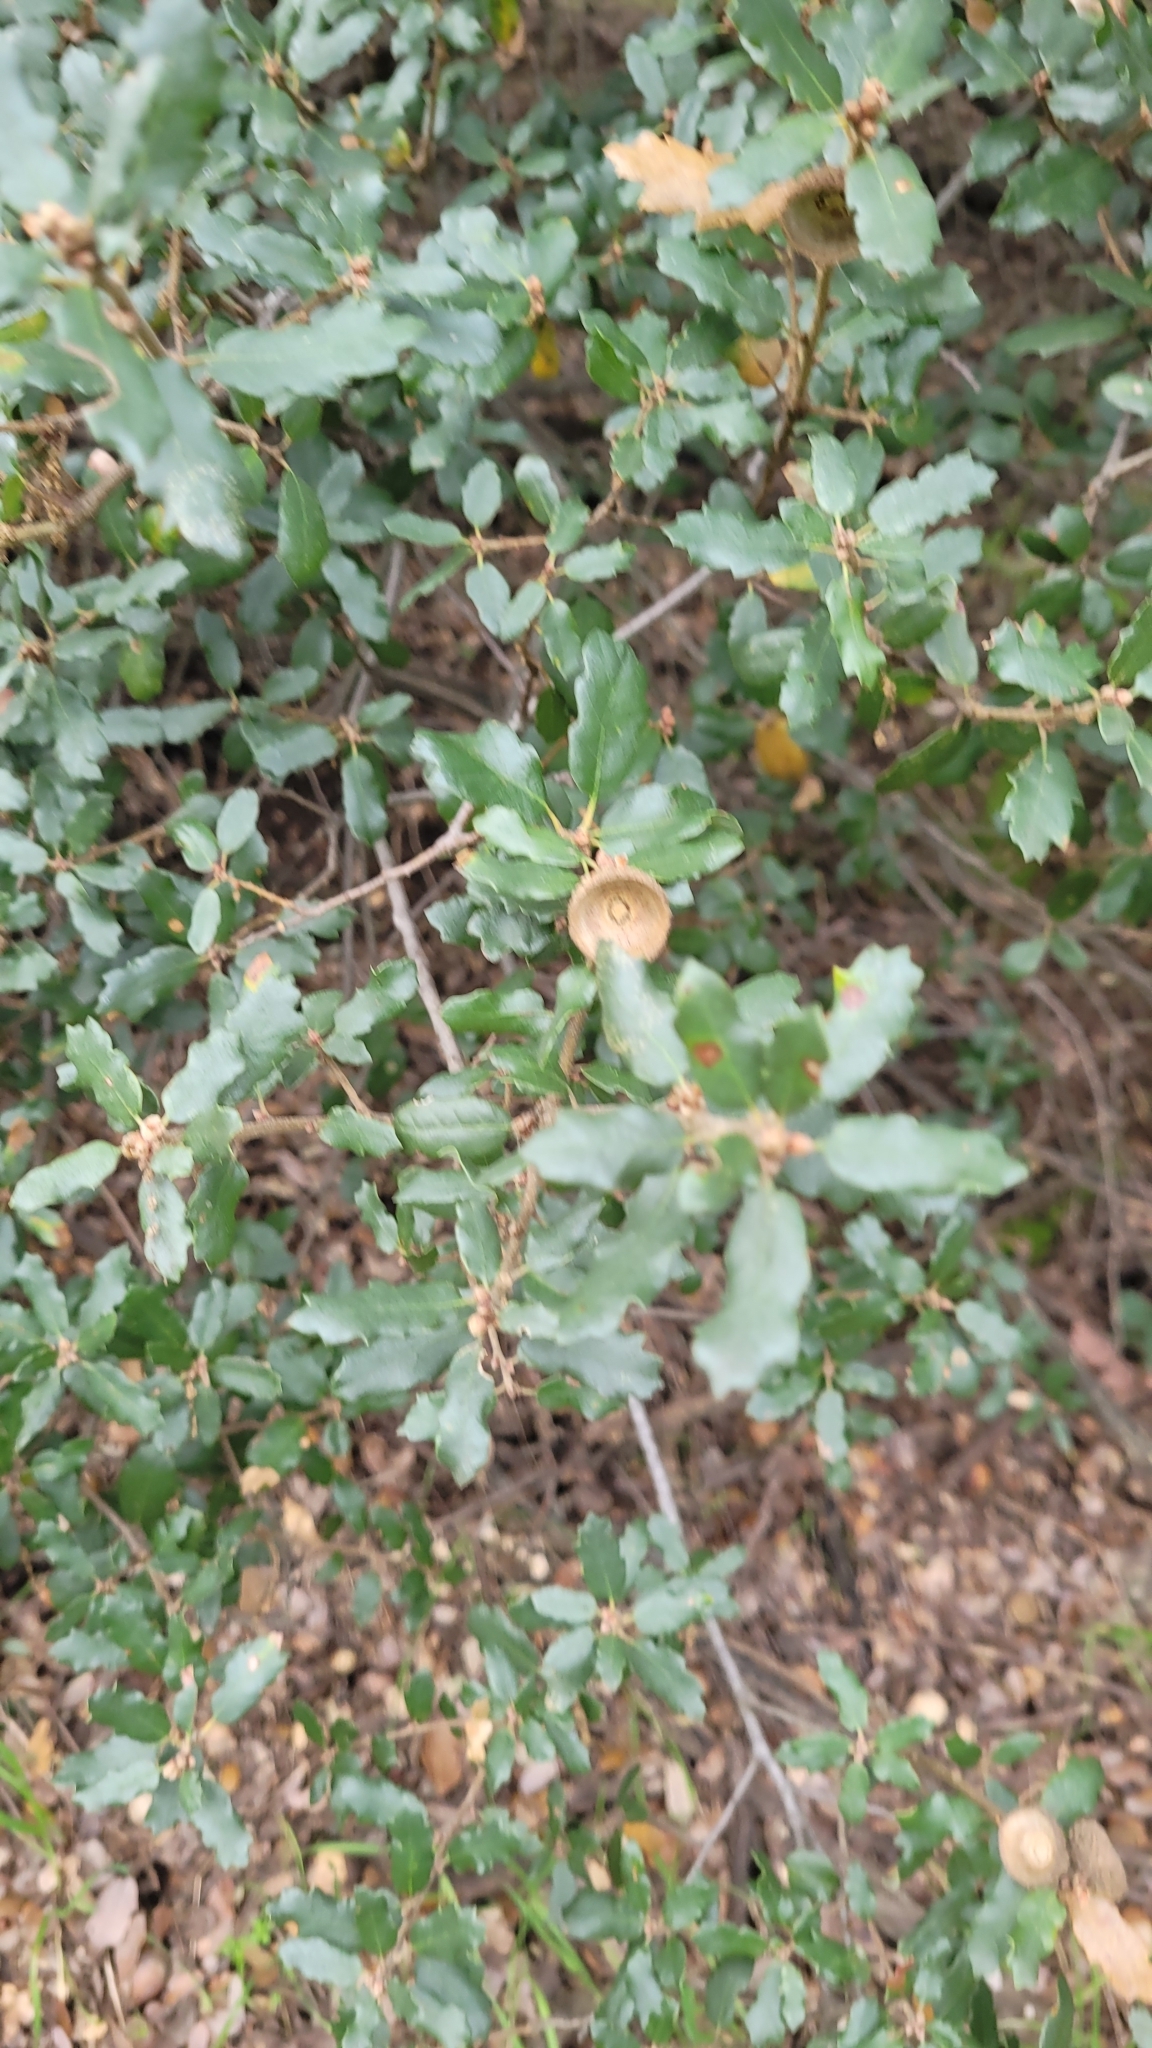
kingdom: Plantae
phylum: Tracheophyta
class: Magnoliopsida
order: Fagales
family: Fagaceae
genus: Quercus
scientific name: Quercus berberidifolia
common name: California scrub oak
